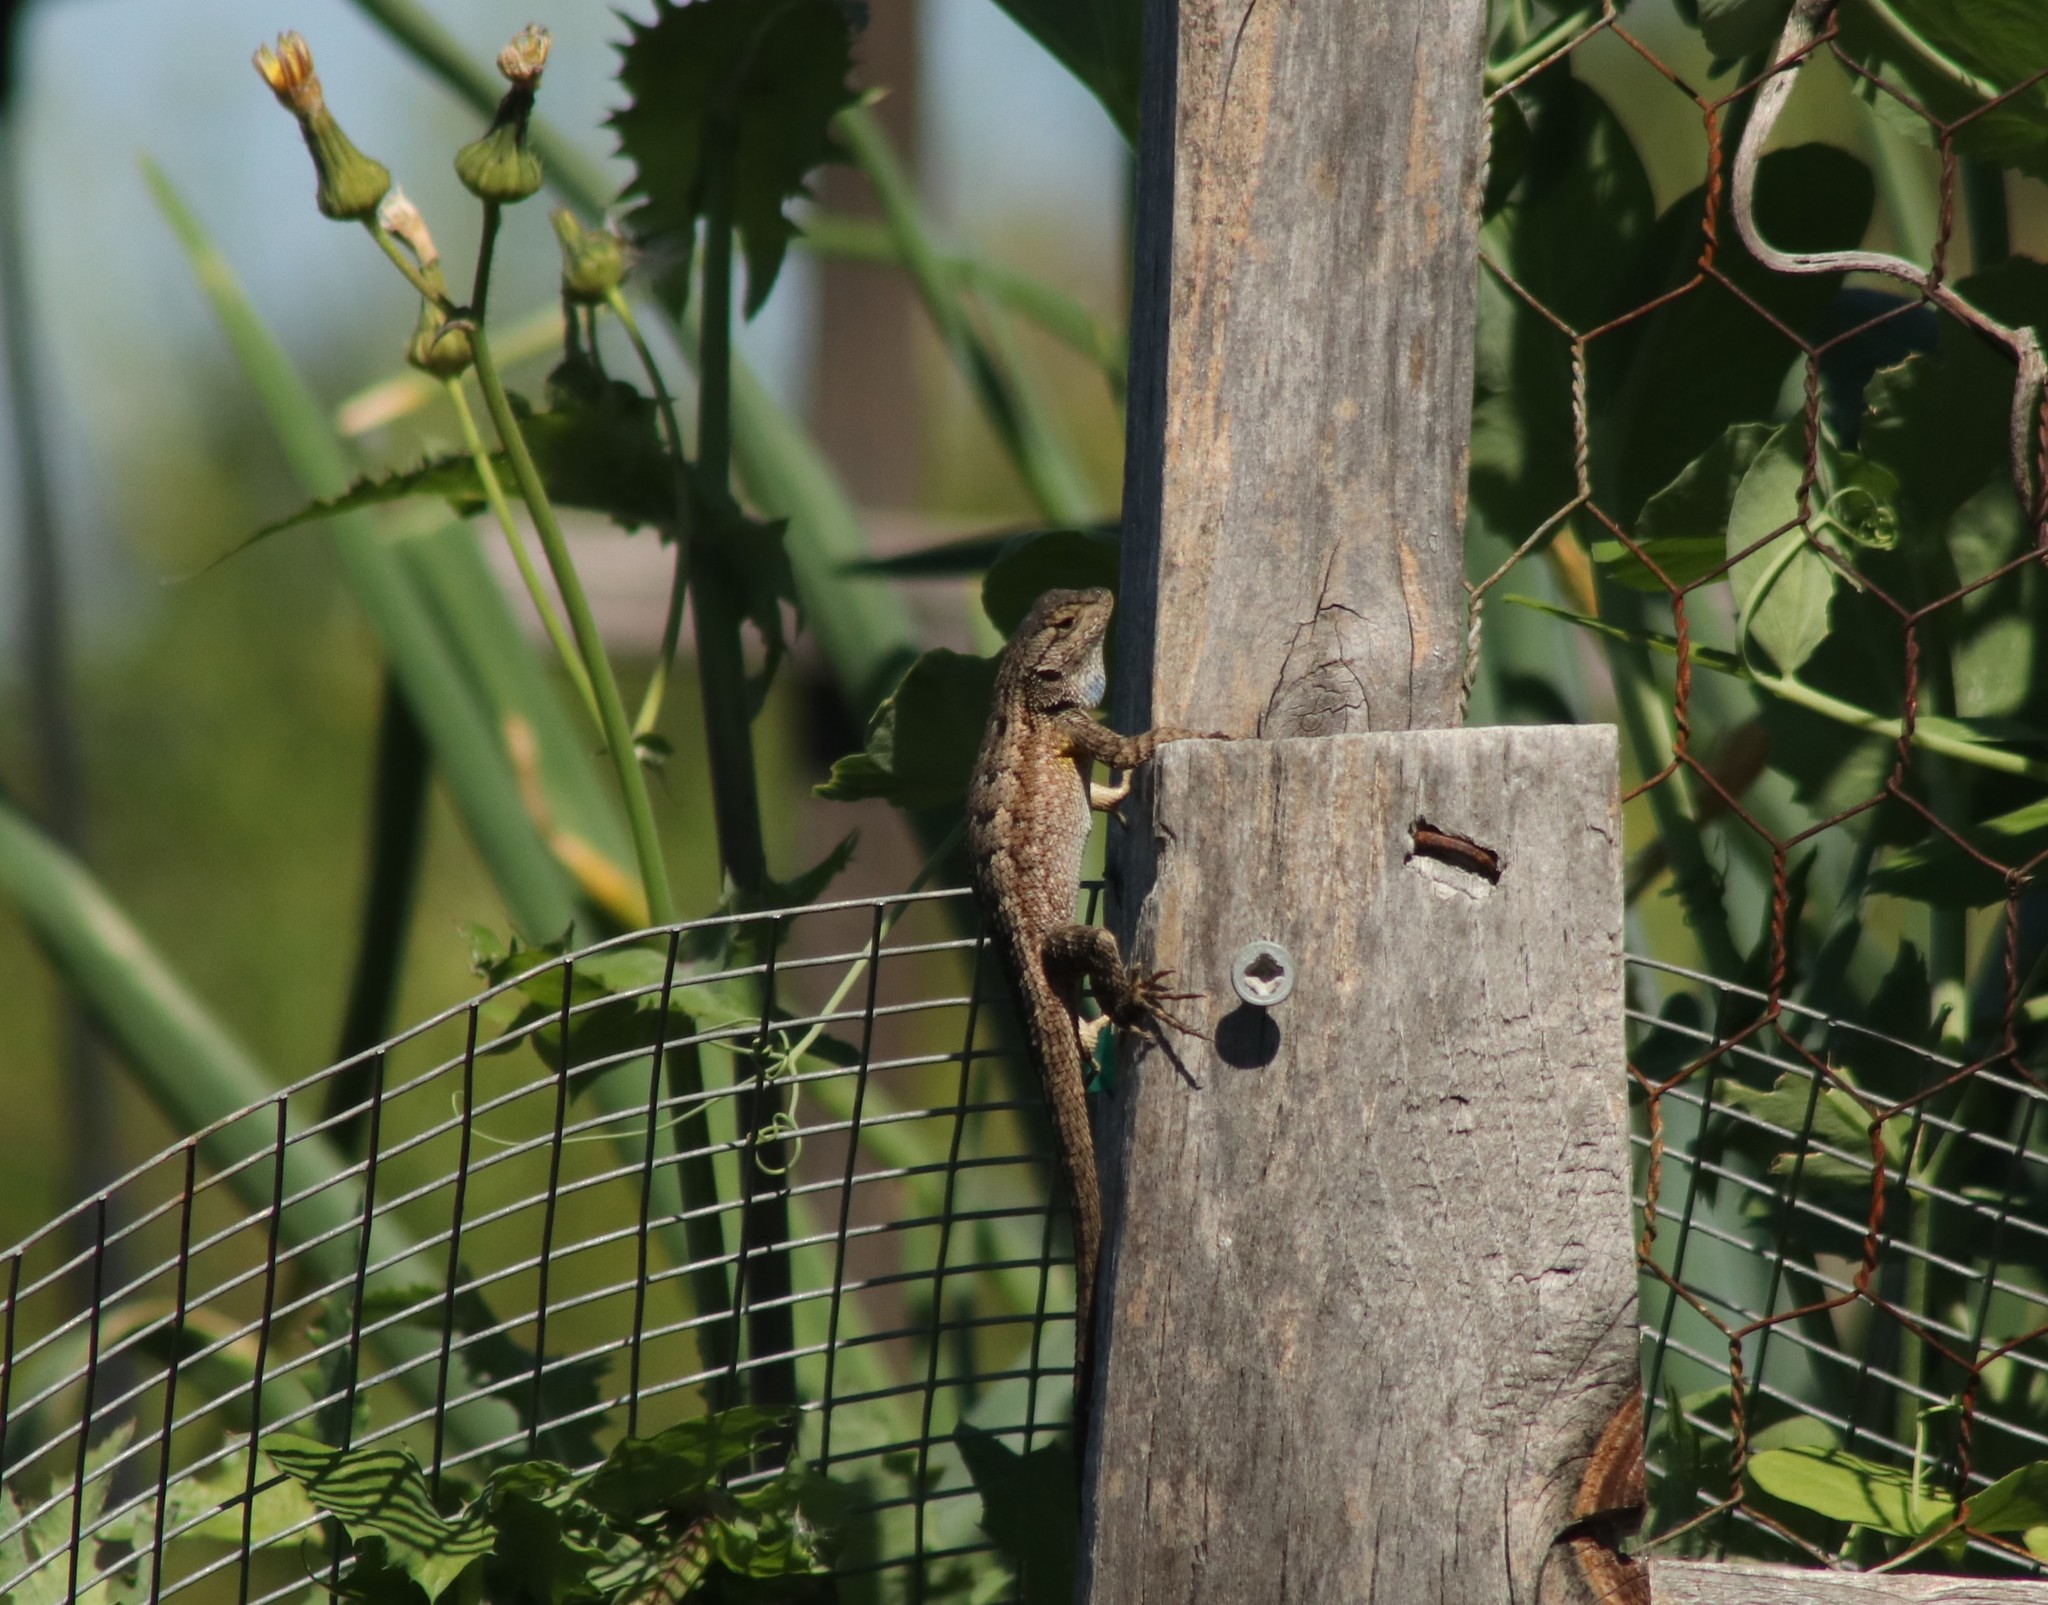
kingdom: Animalia
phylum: Chordata
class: Squamata
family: Phrynosomatidae
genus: Sceloporus
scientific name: Sceloporus occidentalis
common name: Western fence lizard
